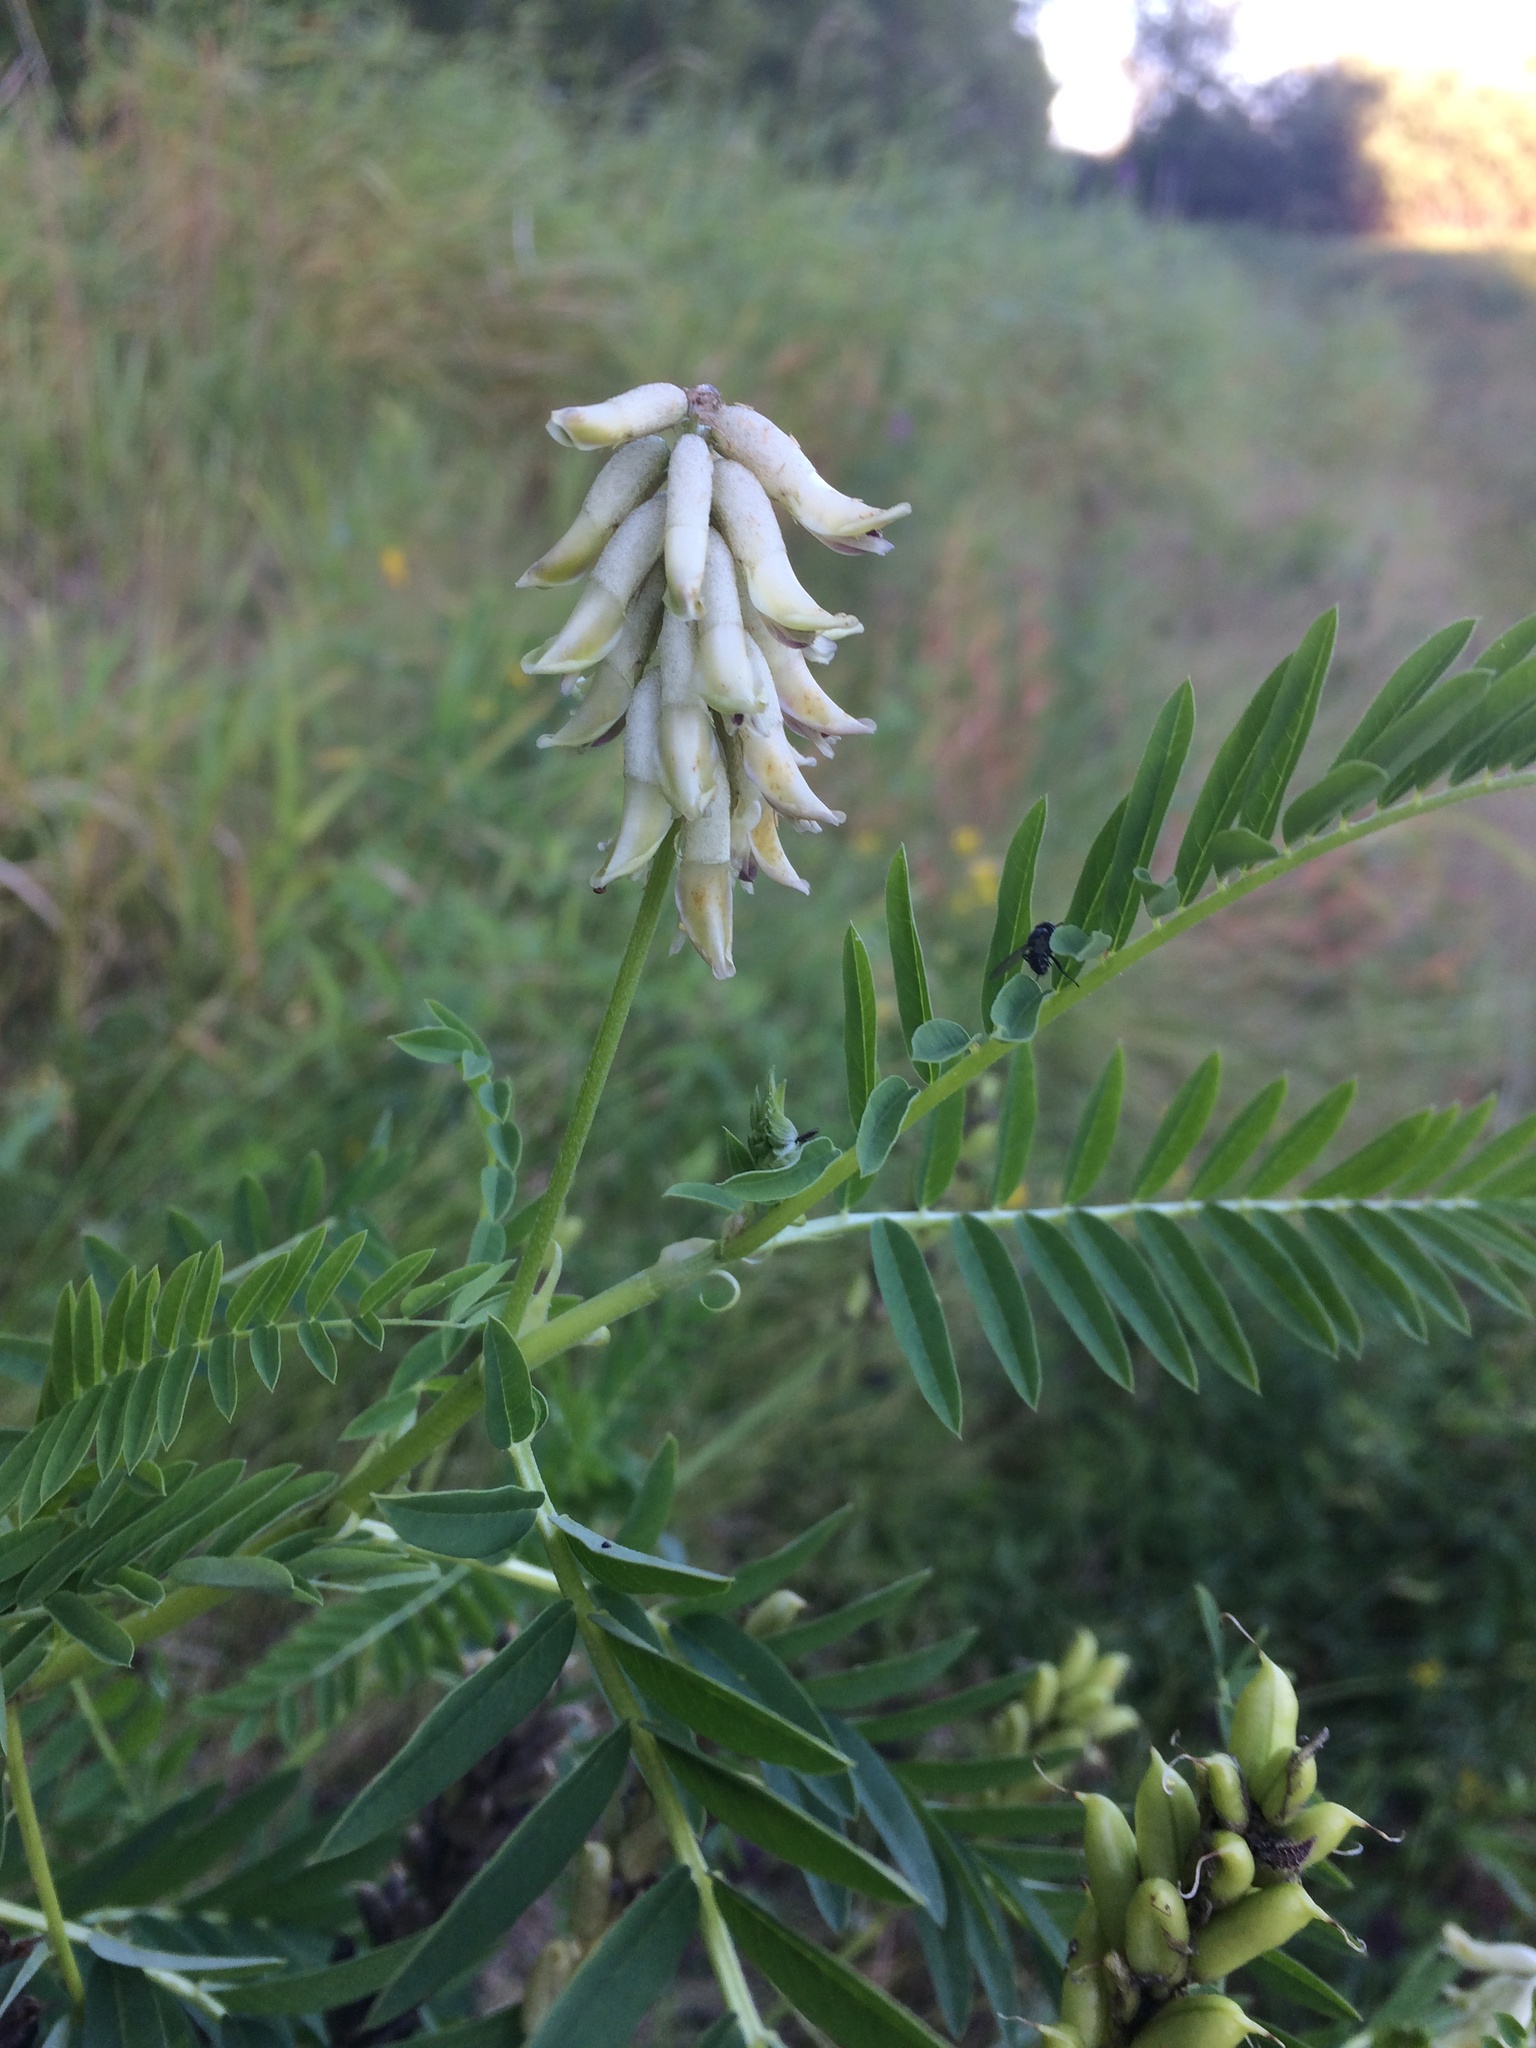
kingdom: Plantae
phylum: Tracheophyta
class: Magnoliopsida
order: Fabales
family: Fabaceae
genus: Astragalus
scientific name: Astragalus uliginosus
